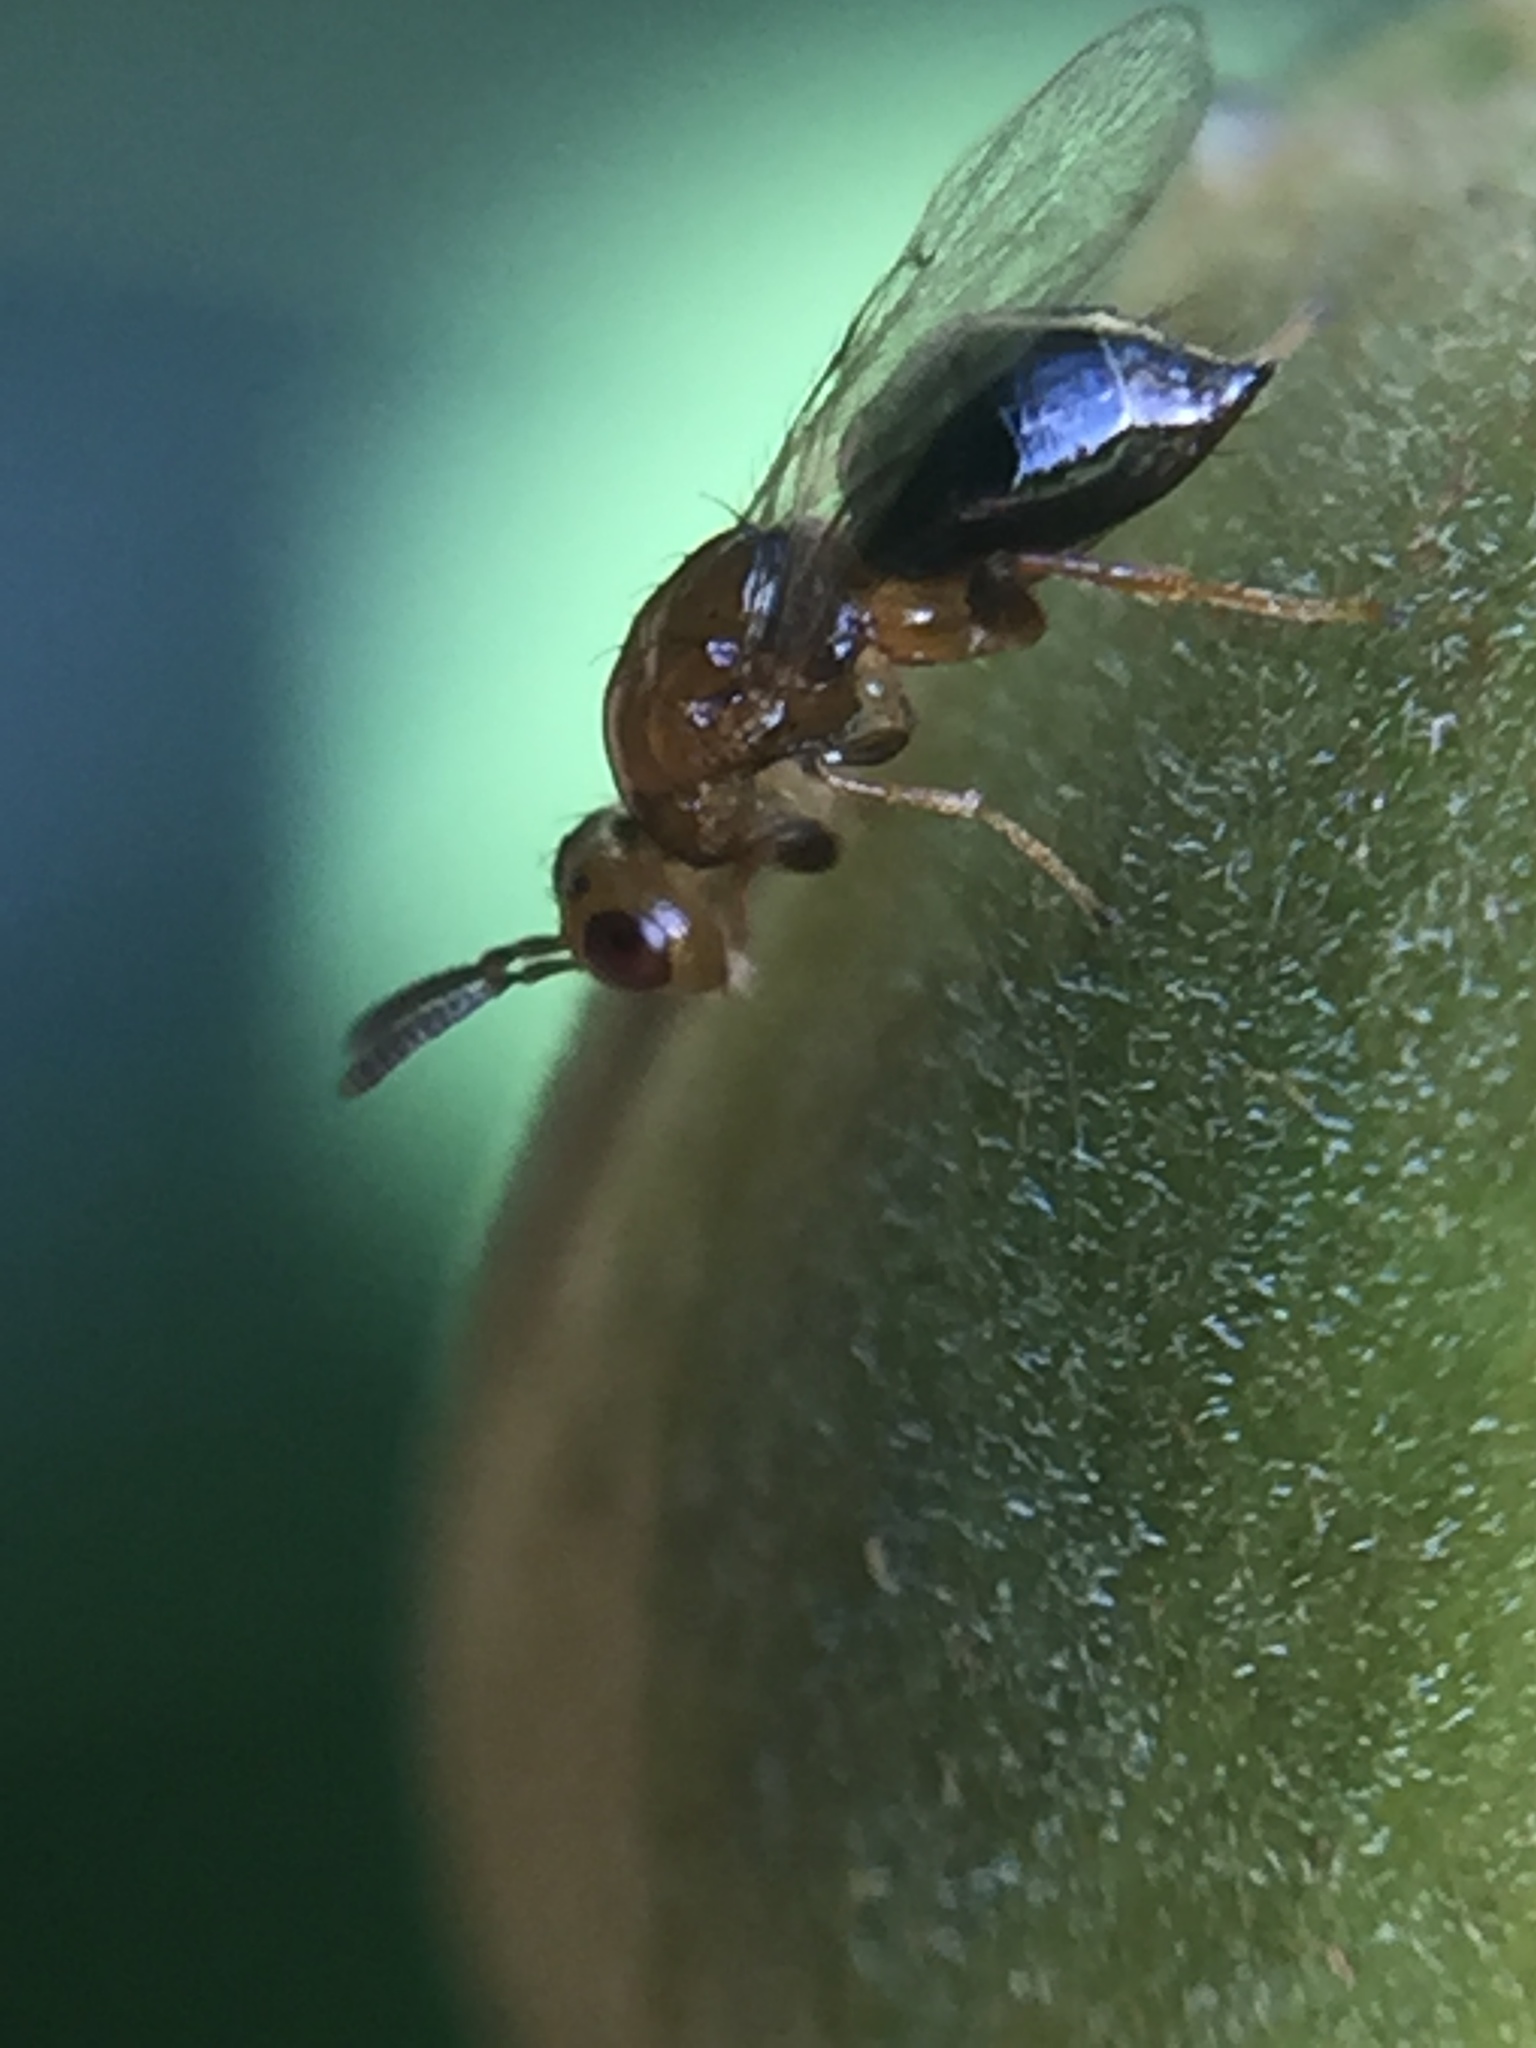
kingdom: Animalia
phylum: Arthropoda
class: Insecta
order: Hymenoptera
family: Agaonidae
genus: Herodotia
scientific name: Herodotia subatriventris
